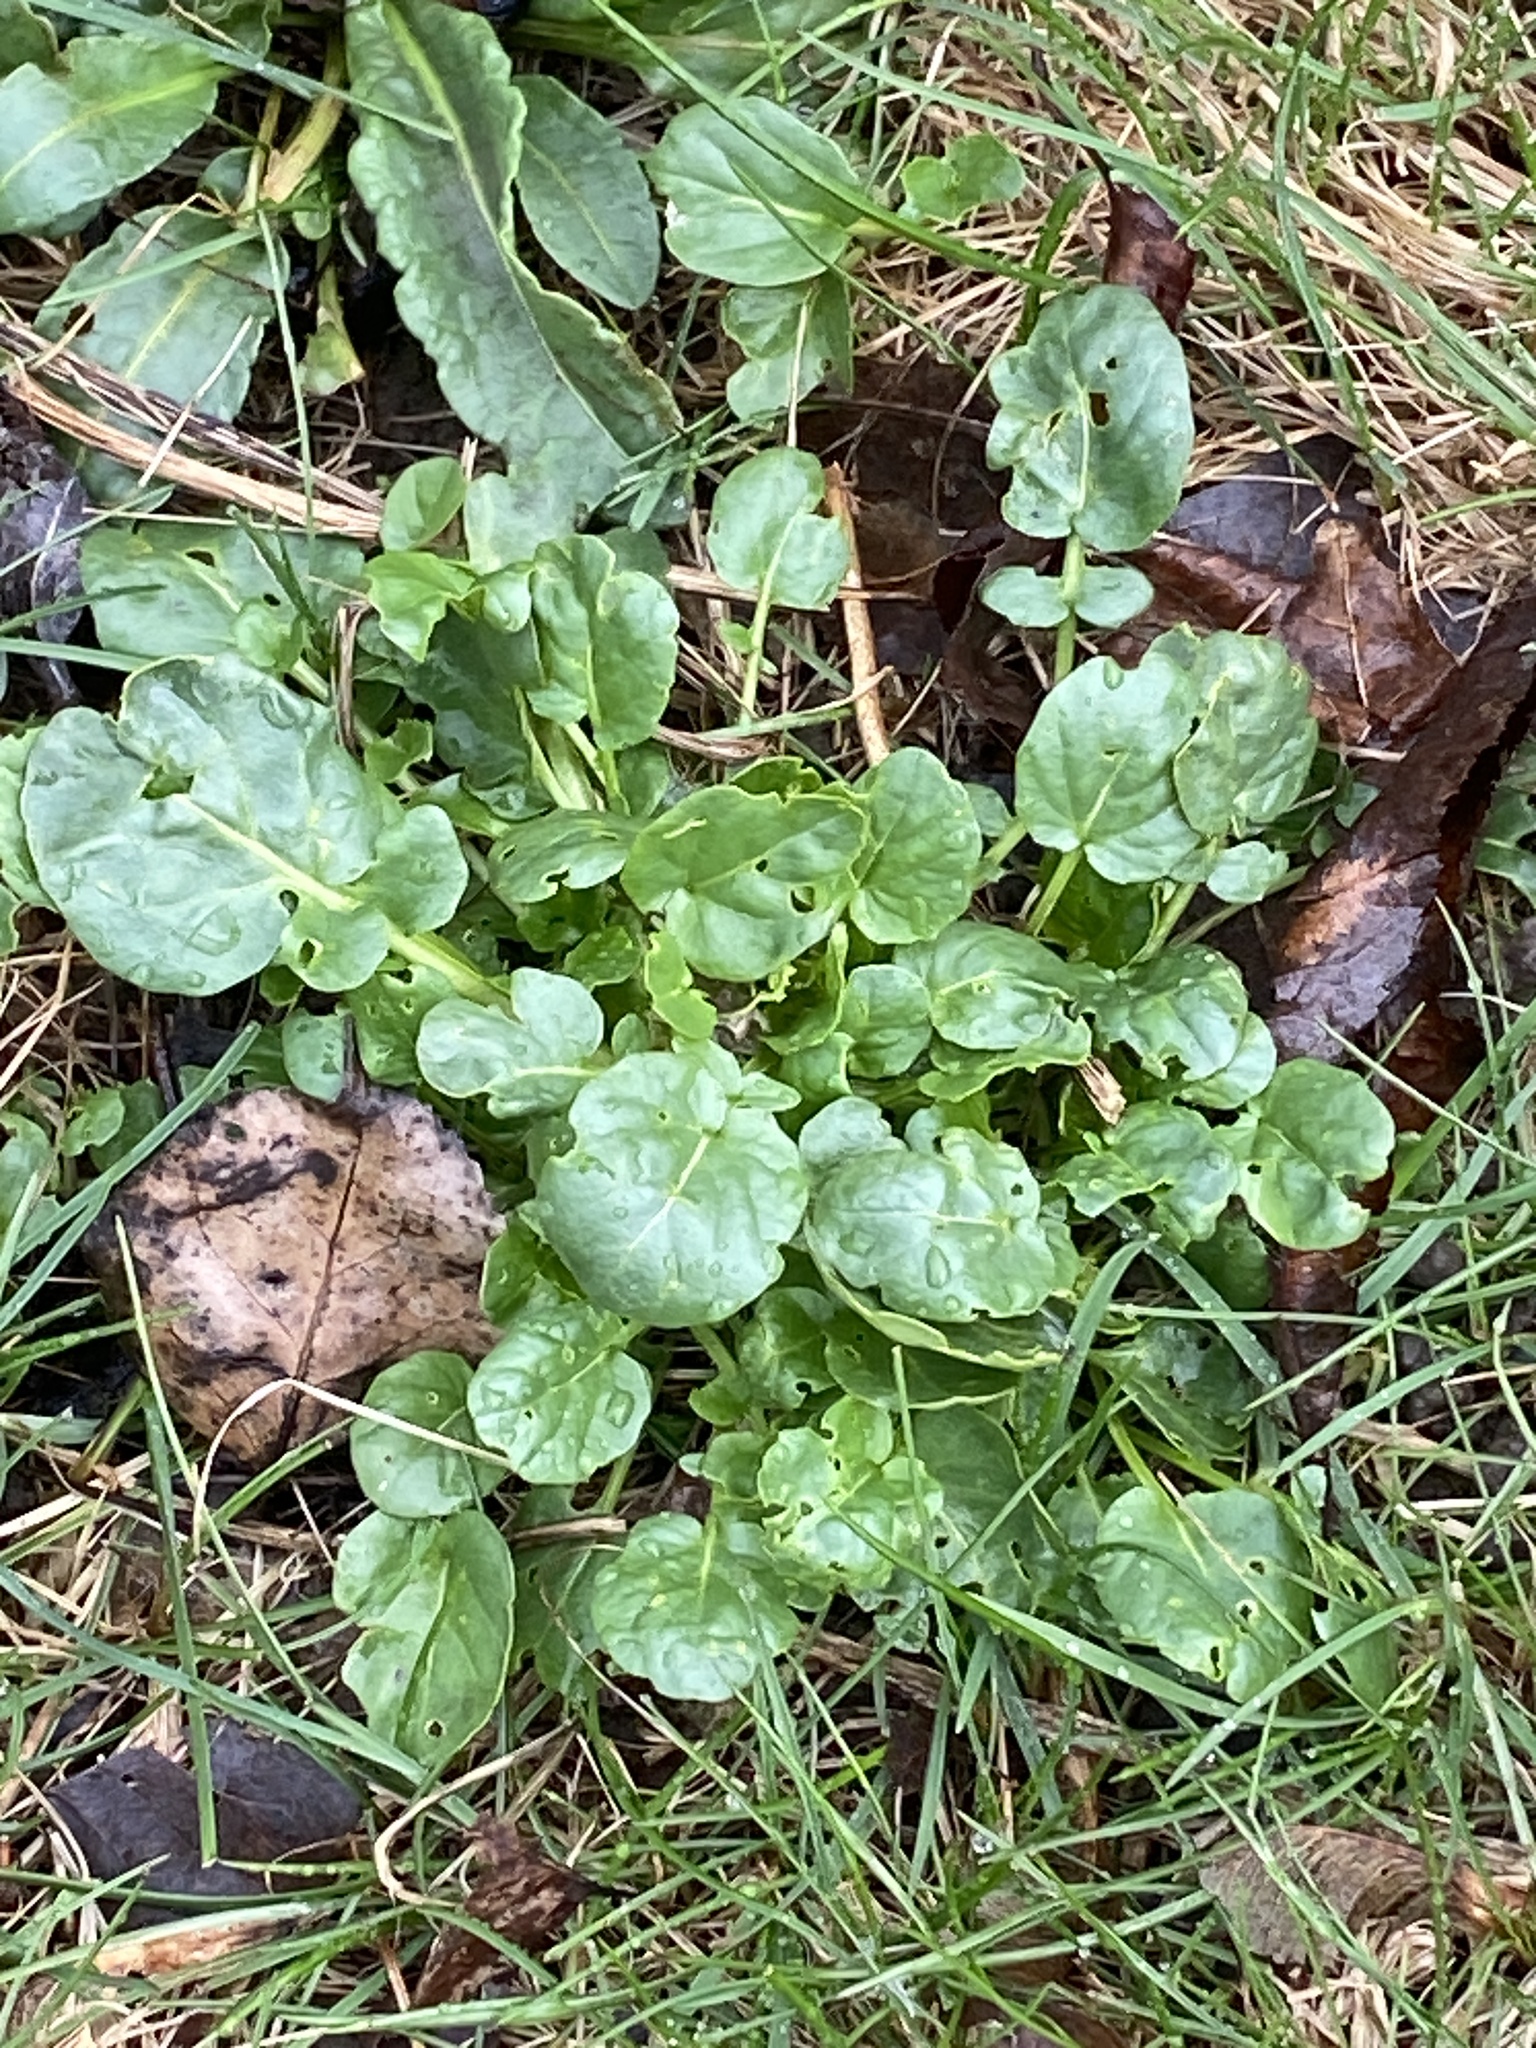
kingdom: Plantae
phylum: Tracheophyta
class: Magnoliopsida
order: Brassicales
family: Brassicaceae
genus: Barbarea
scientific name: Barbarea vulgaris
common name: Cressy-greens
